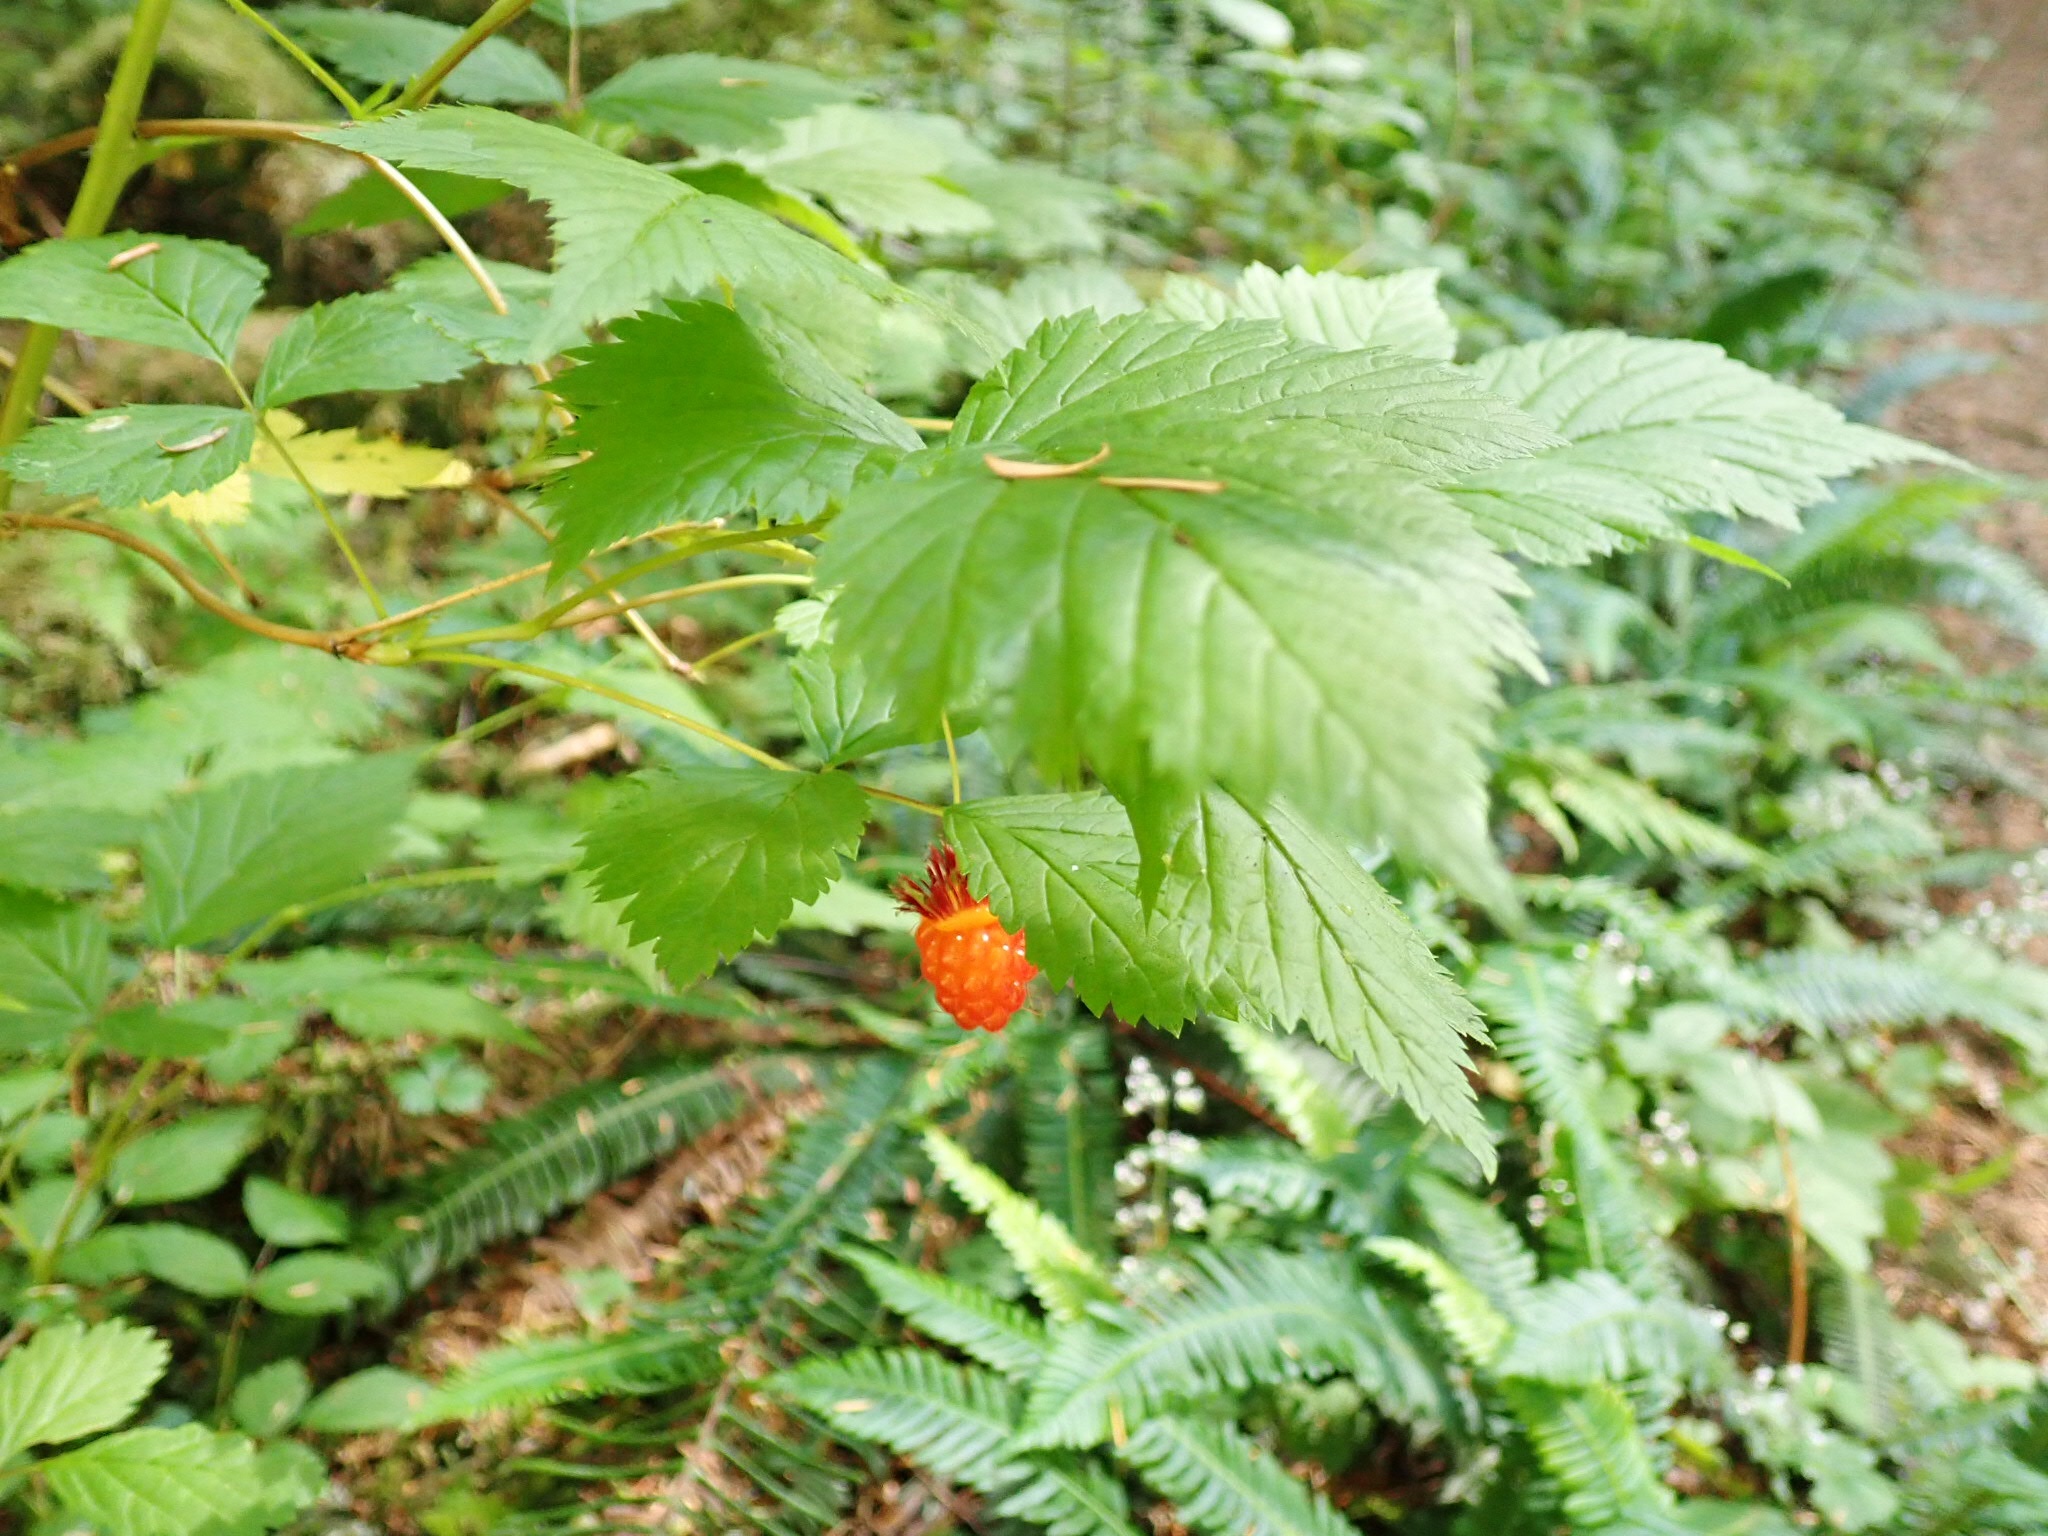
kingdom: Plantae
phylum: Tracheophyta
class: Magnoliopsida
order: Rosales
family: Rosaceae
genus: Rubus
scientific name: Rubus spectabilis
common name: Salmonberry
